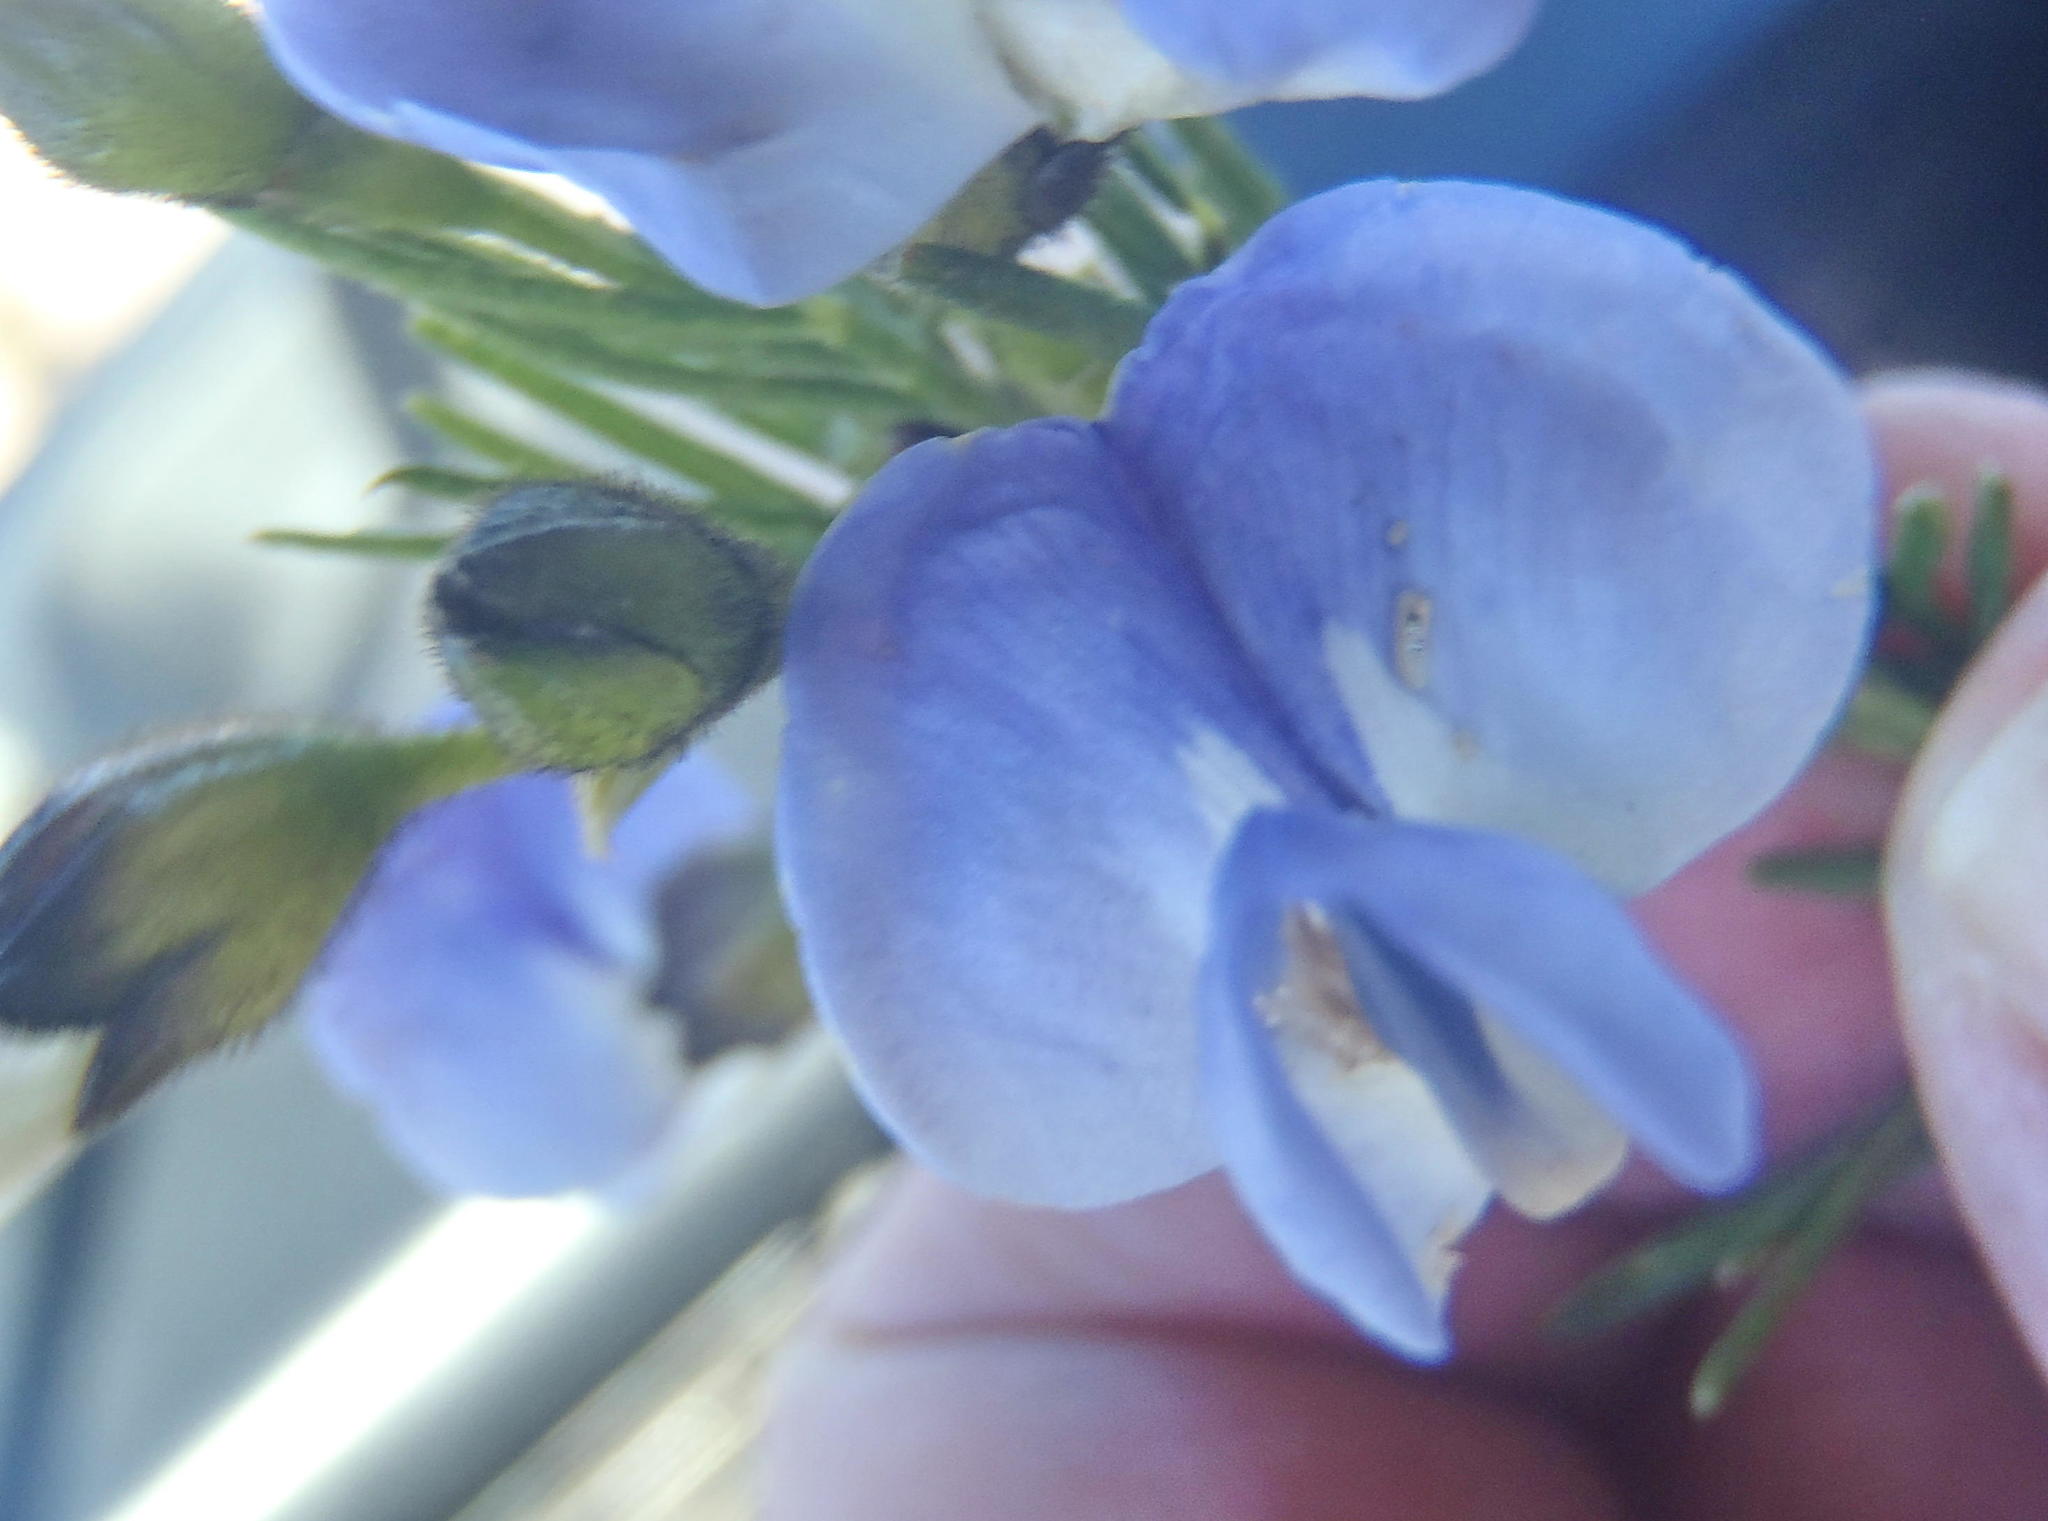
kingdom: Plantae
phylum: Tracheophyta
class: Magnoliopsida
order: Fabales
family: Fabaceae
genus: Psoralea
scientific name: Psoralea affinis
